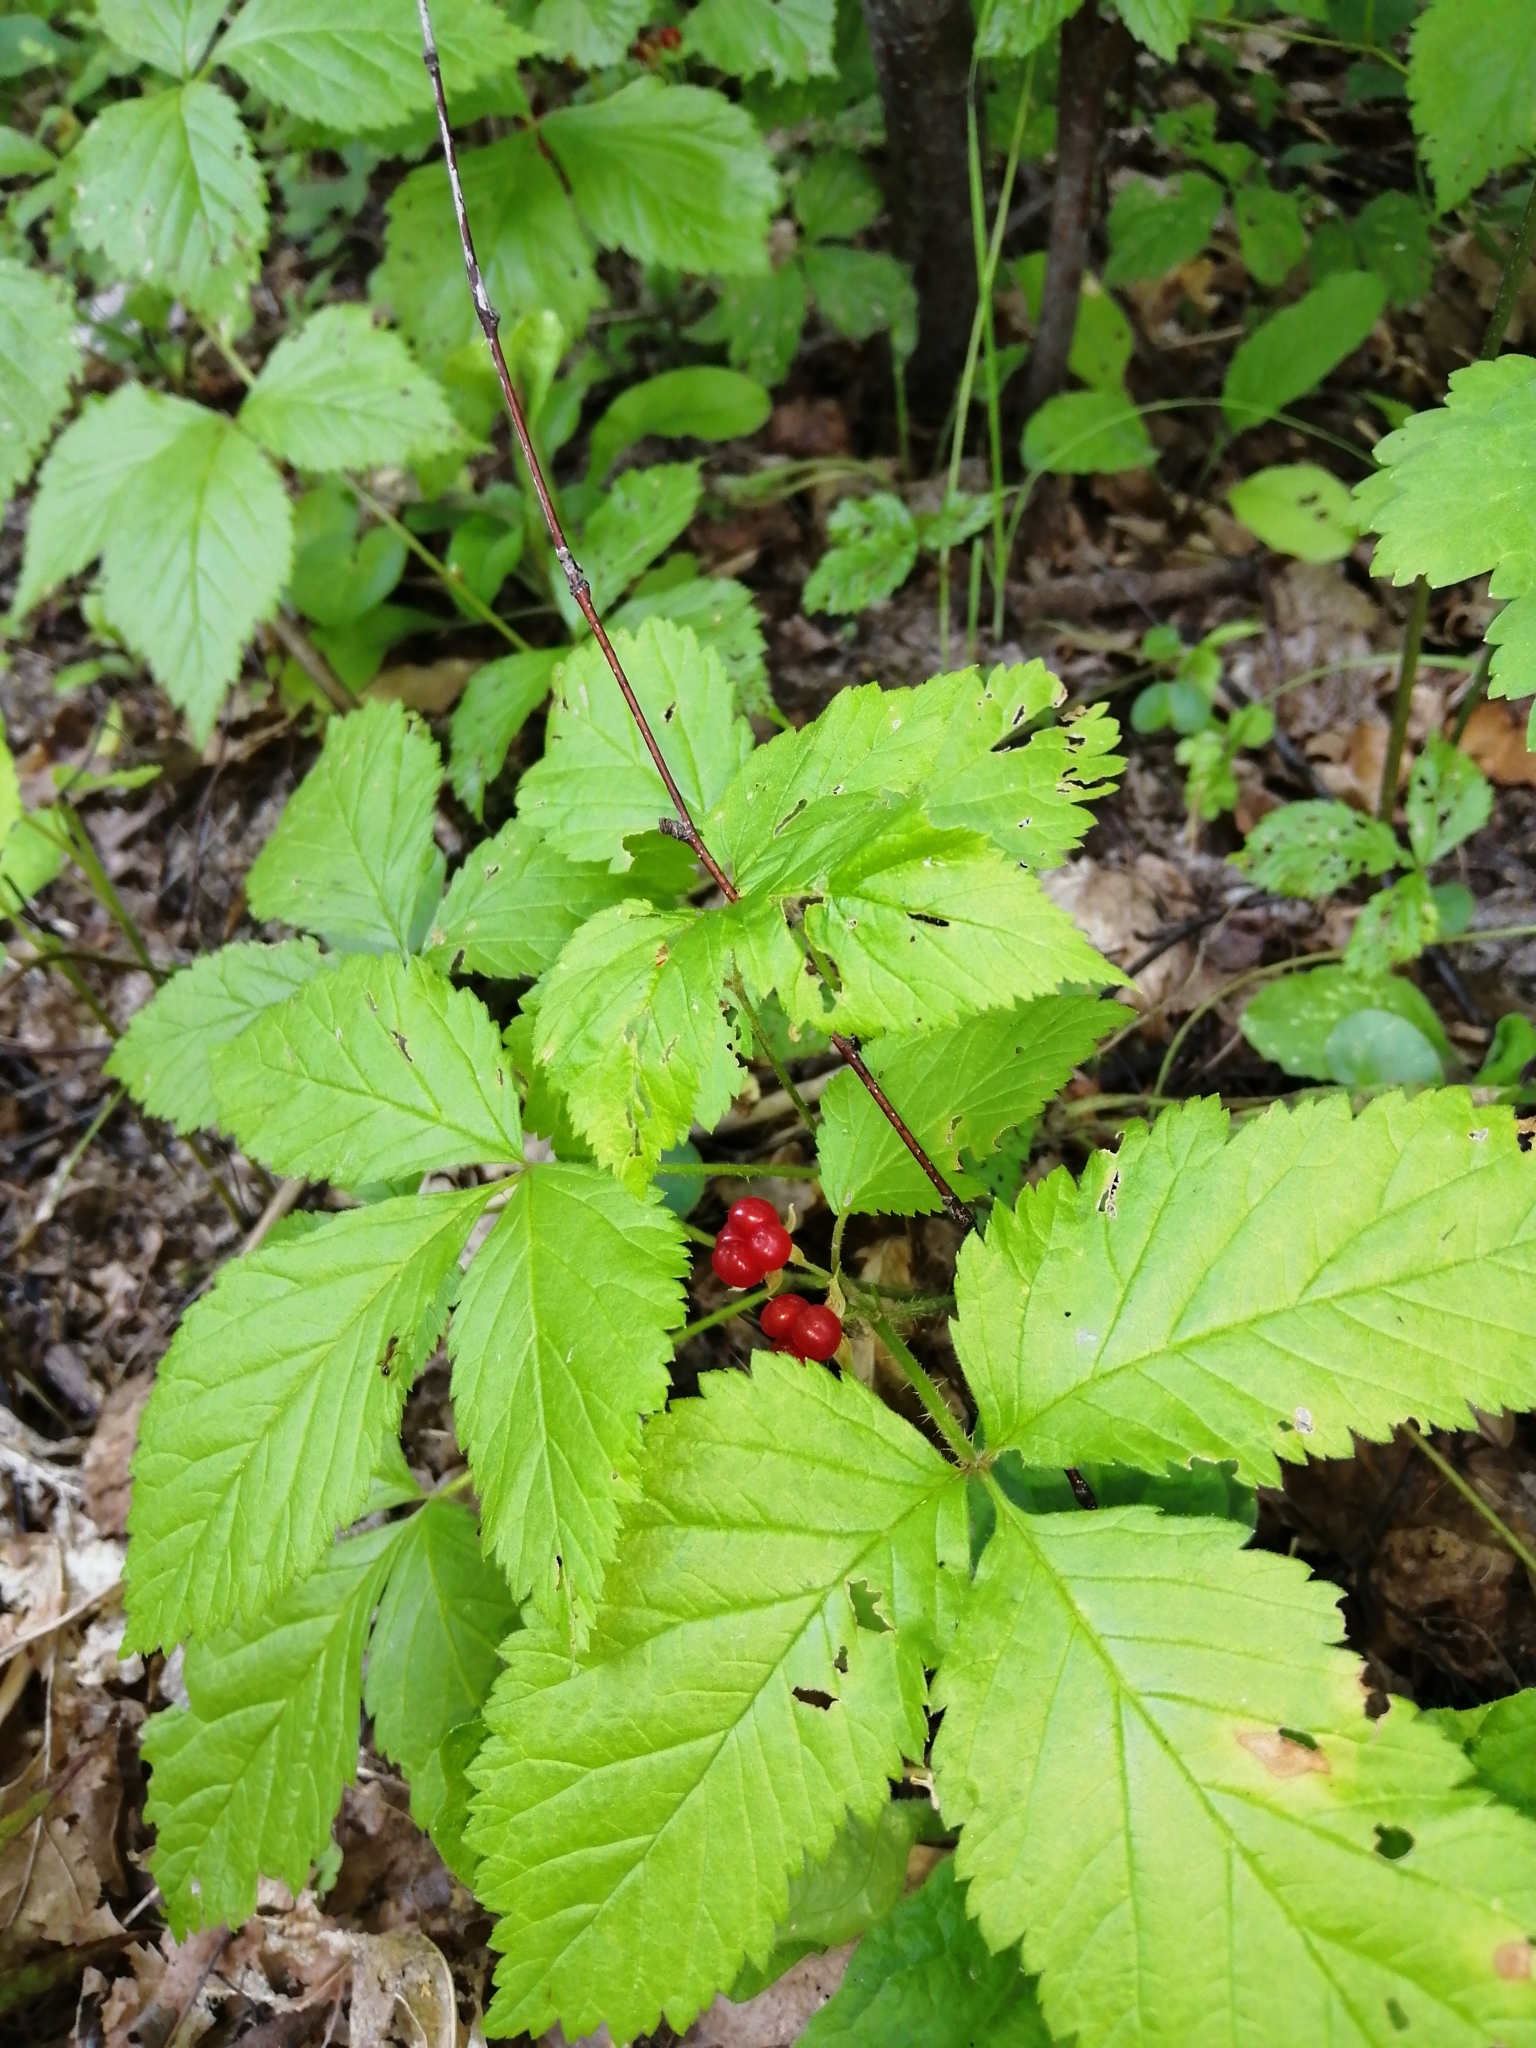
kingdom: Plantae
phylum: Tracheophyta
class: Magnoliopsida
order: Rosales
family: Rosaceae
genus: Rubus
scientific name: Rubus saxatilis
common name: Stone bramble
